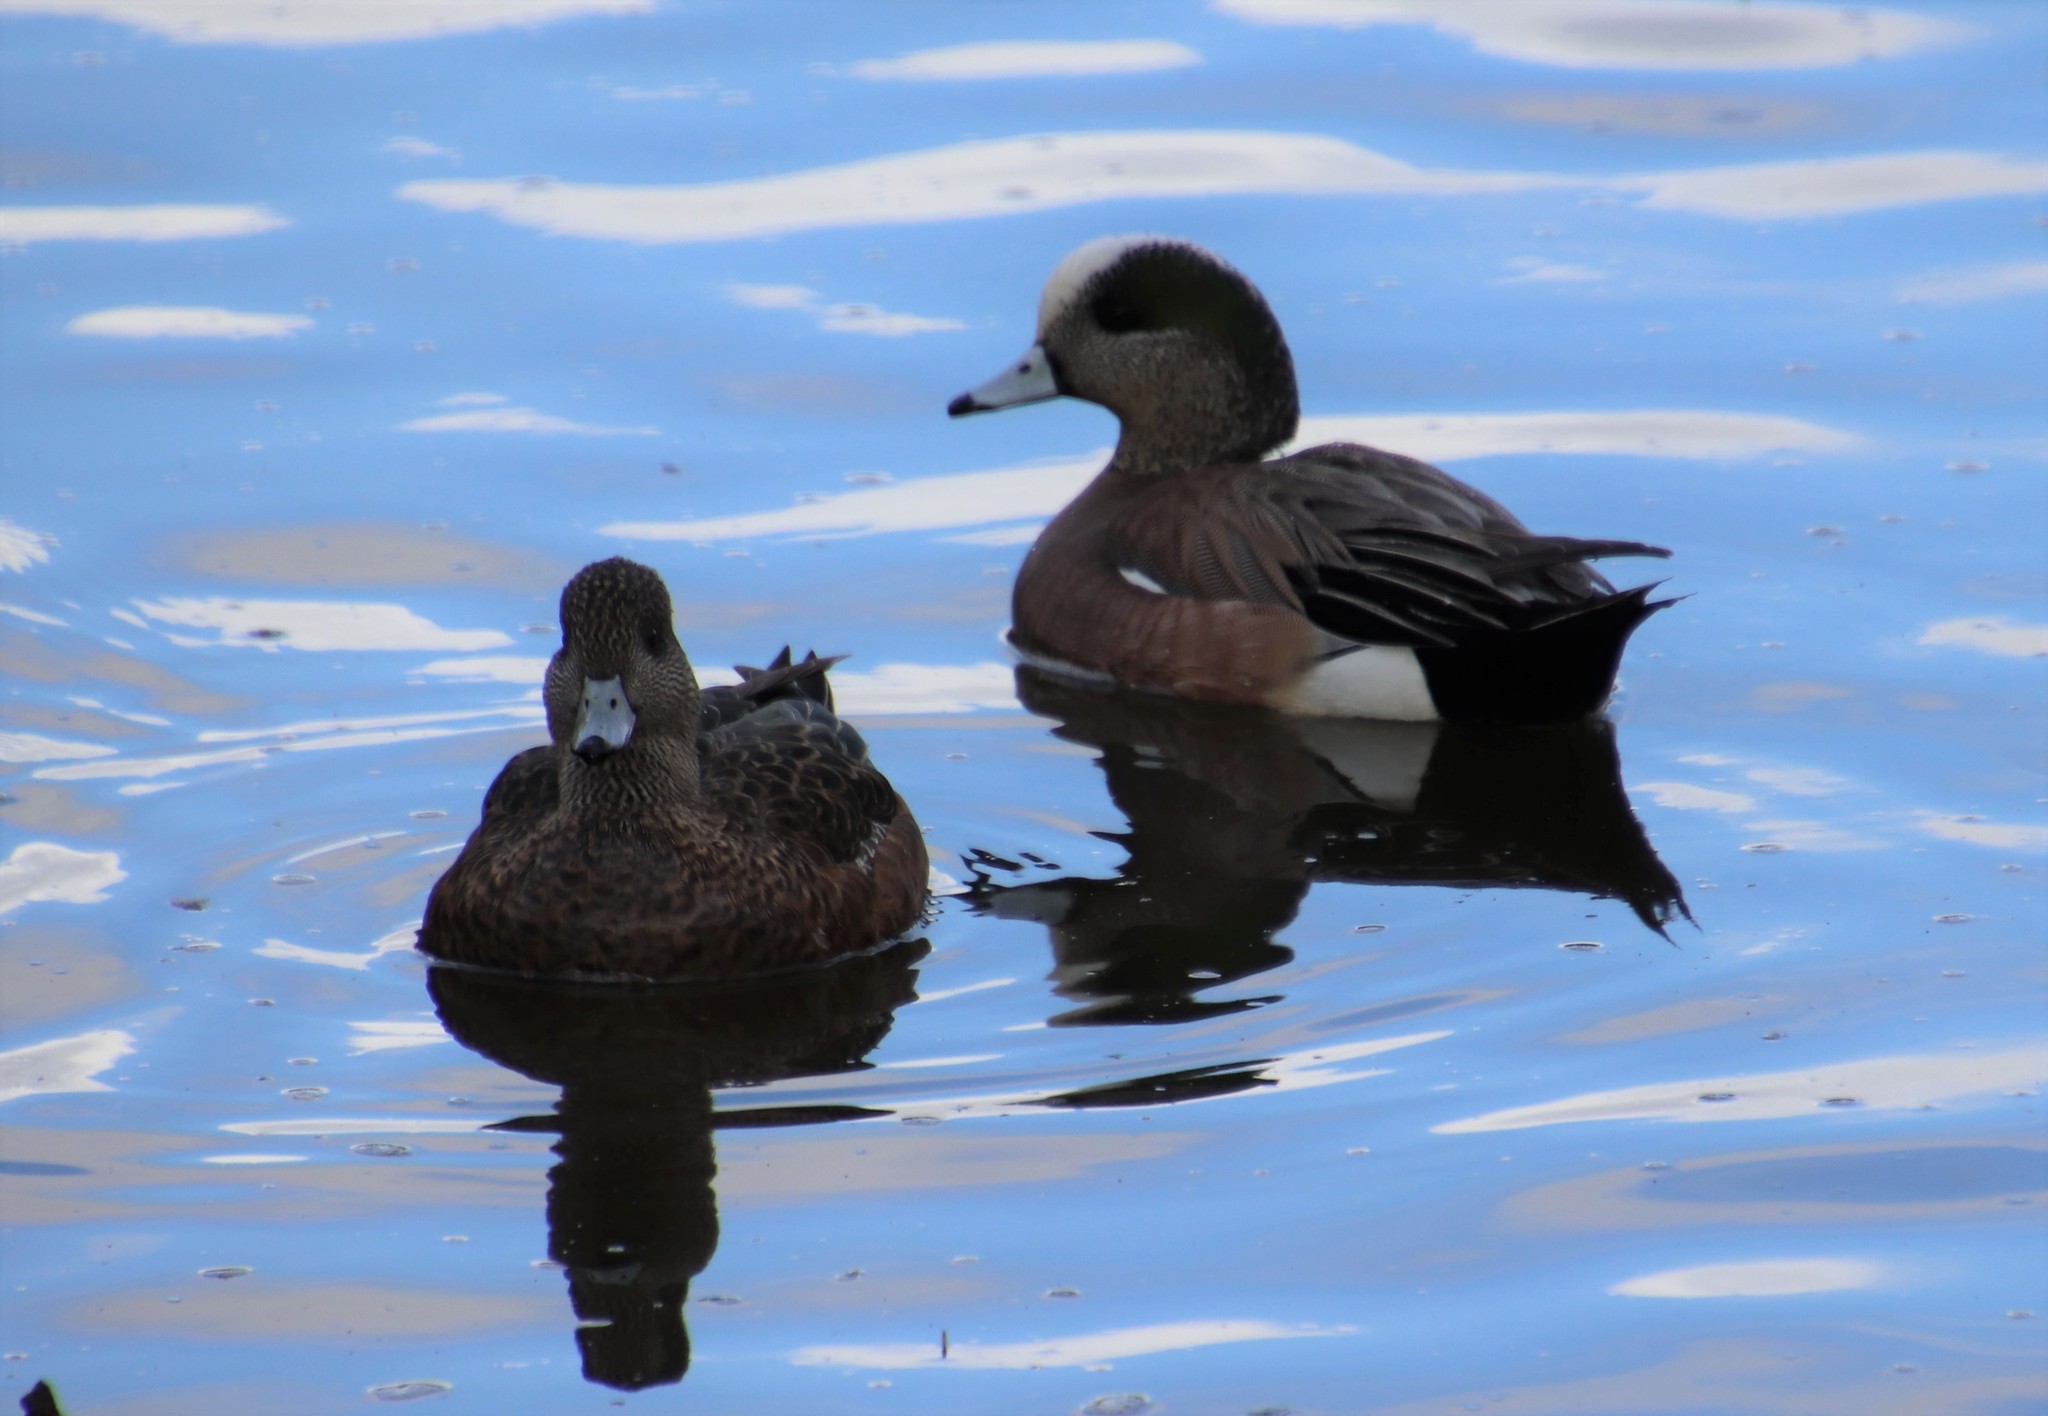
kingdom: Animalia
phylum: Chordata
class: Aves
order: Anseriformes
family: Anatidae
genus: Mareca
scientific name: Mareca americana
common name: American wigeon
